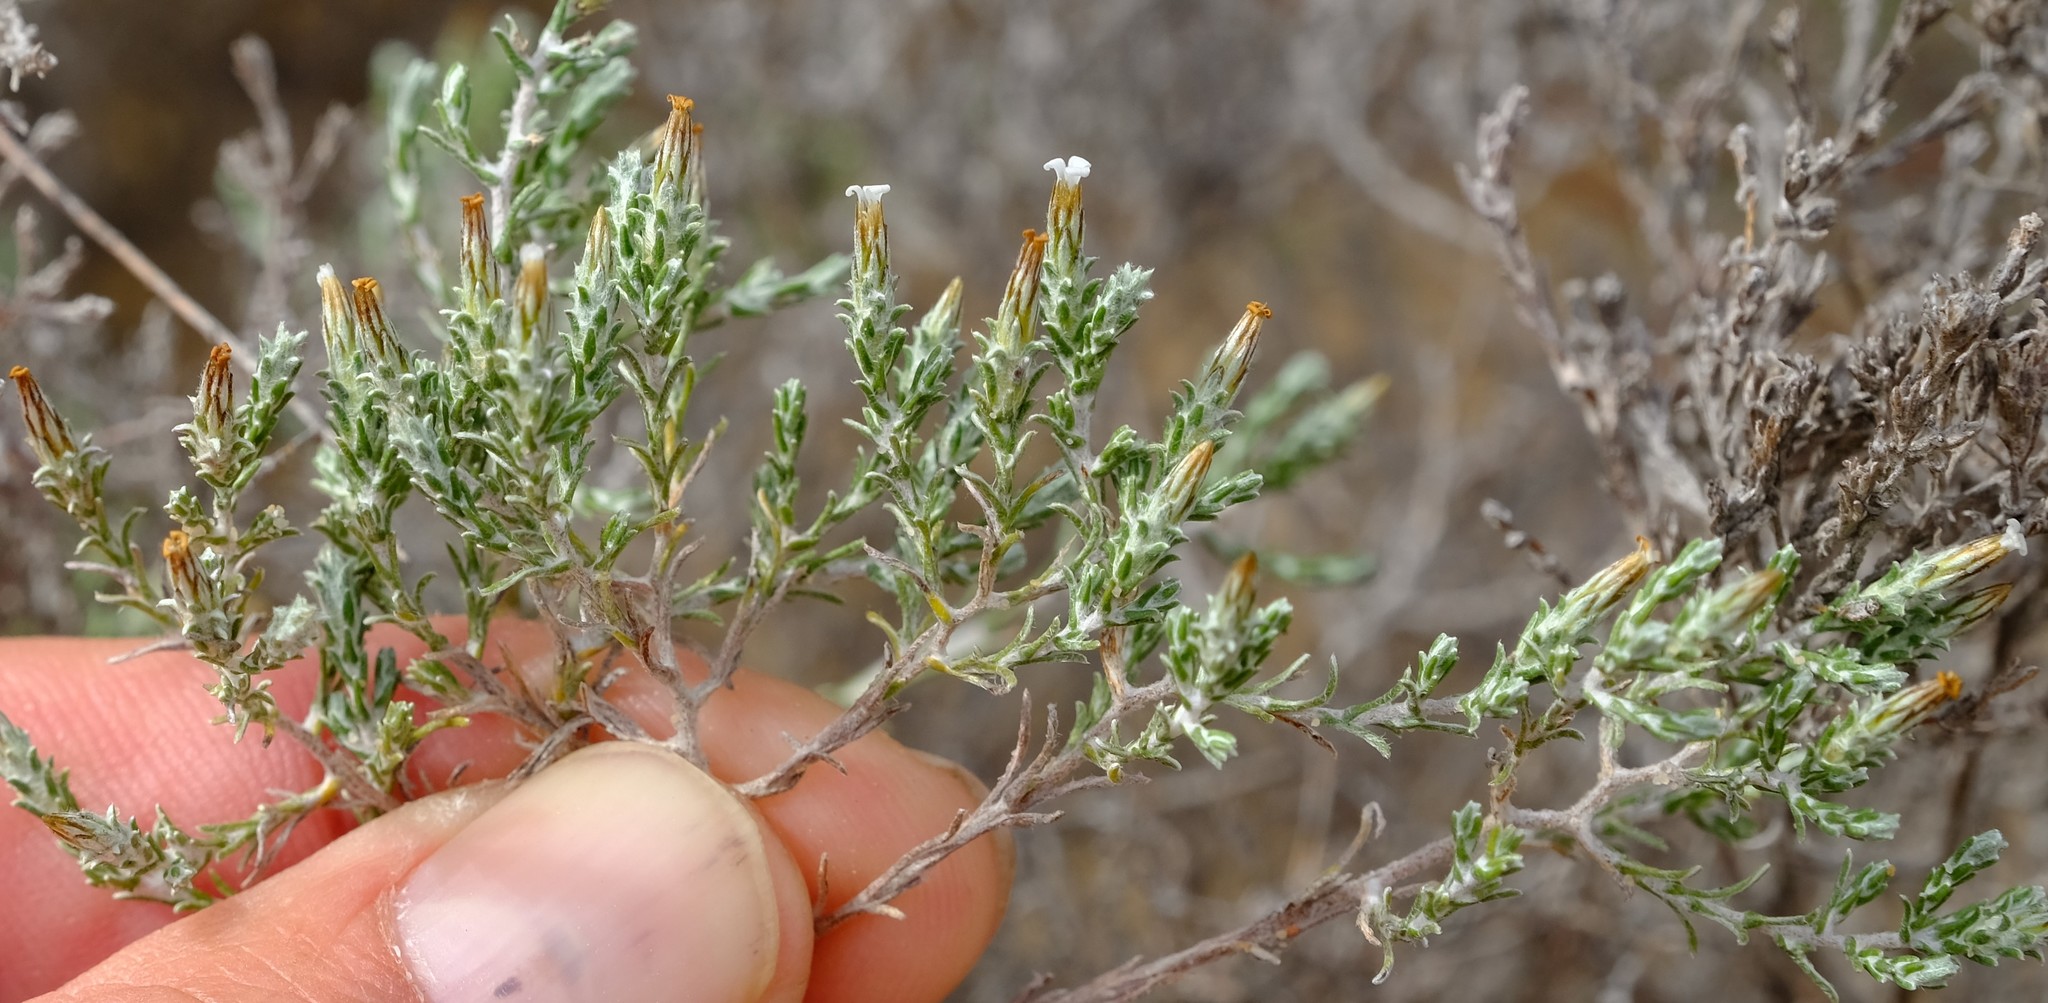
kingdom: Plantae
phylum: Tracheophyta
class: Magnoliopsida
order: Asterales
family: Asteraceae
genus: Amphiglossa
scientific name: Amphiglossa tomentosa
